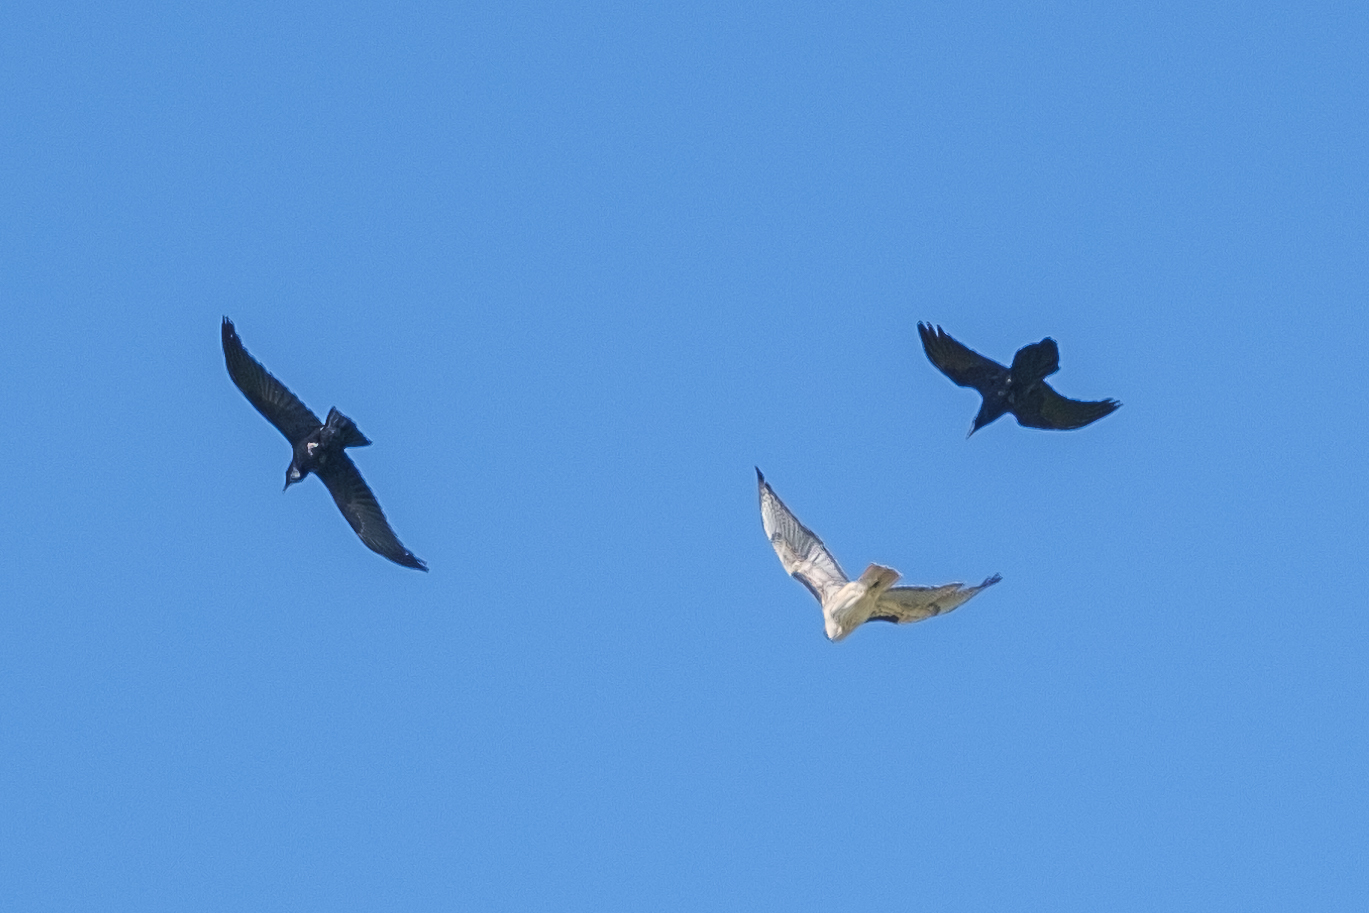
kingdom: Animalia
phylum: Chordata
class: Aves
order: Accipitriformes
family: Accipitridae
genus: Buteo
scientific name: Buteo jamaicensis
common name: Red-tailed hawk
